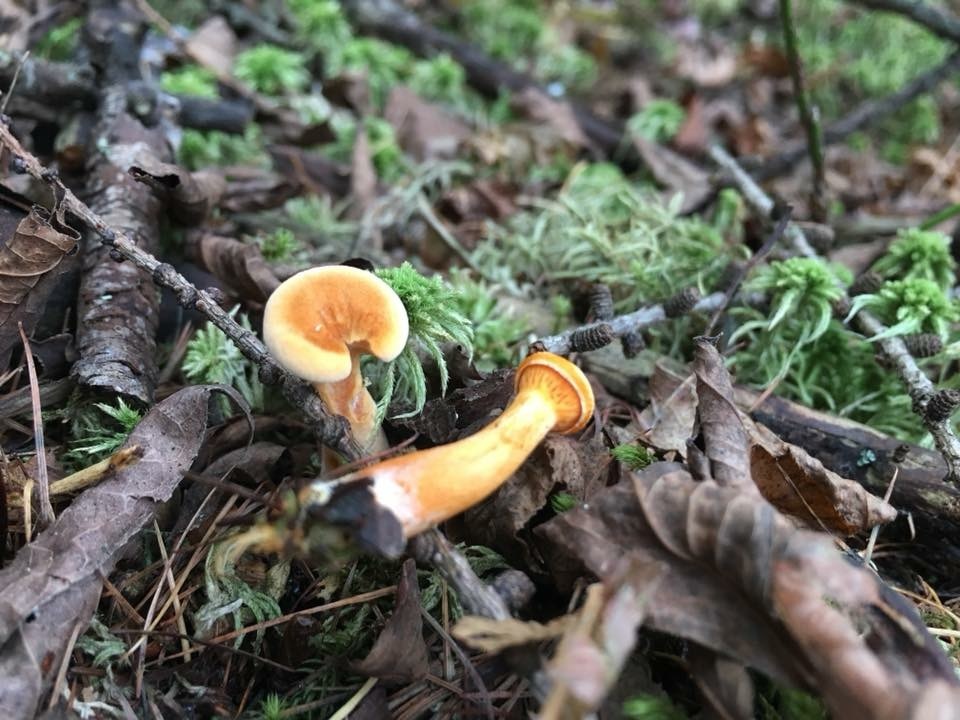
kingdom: Fungi
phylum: Basidiomycota
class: Agaricomycetes
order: Boletales
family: Hygrophoropsidaceae
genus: Hygrophoropsis
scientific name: Hygrophoropsis aurantiaca
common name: False chanterelle
